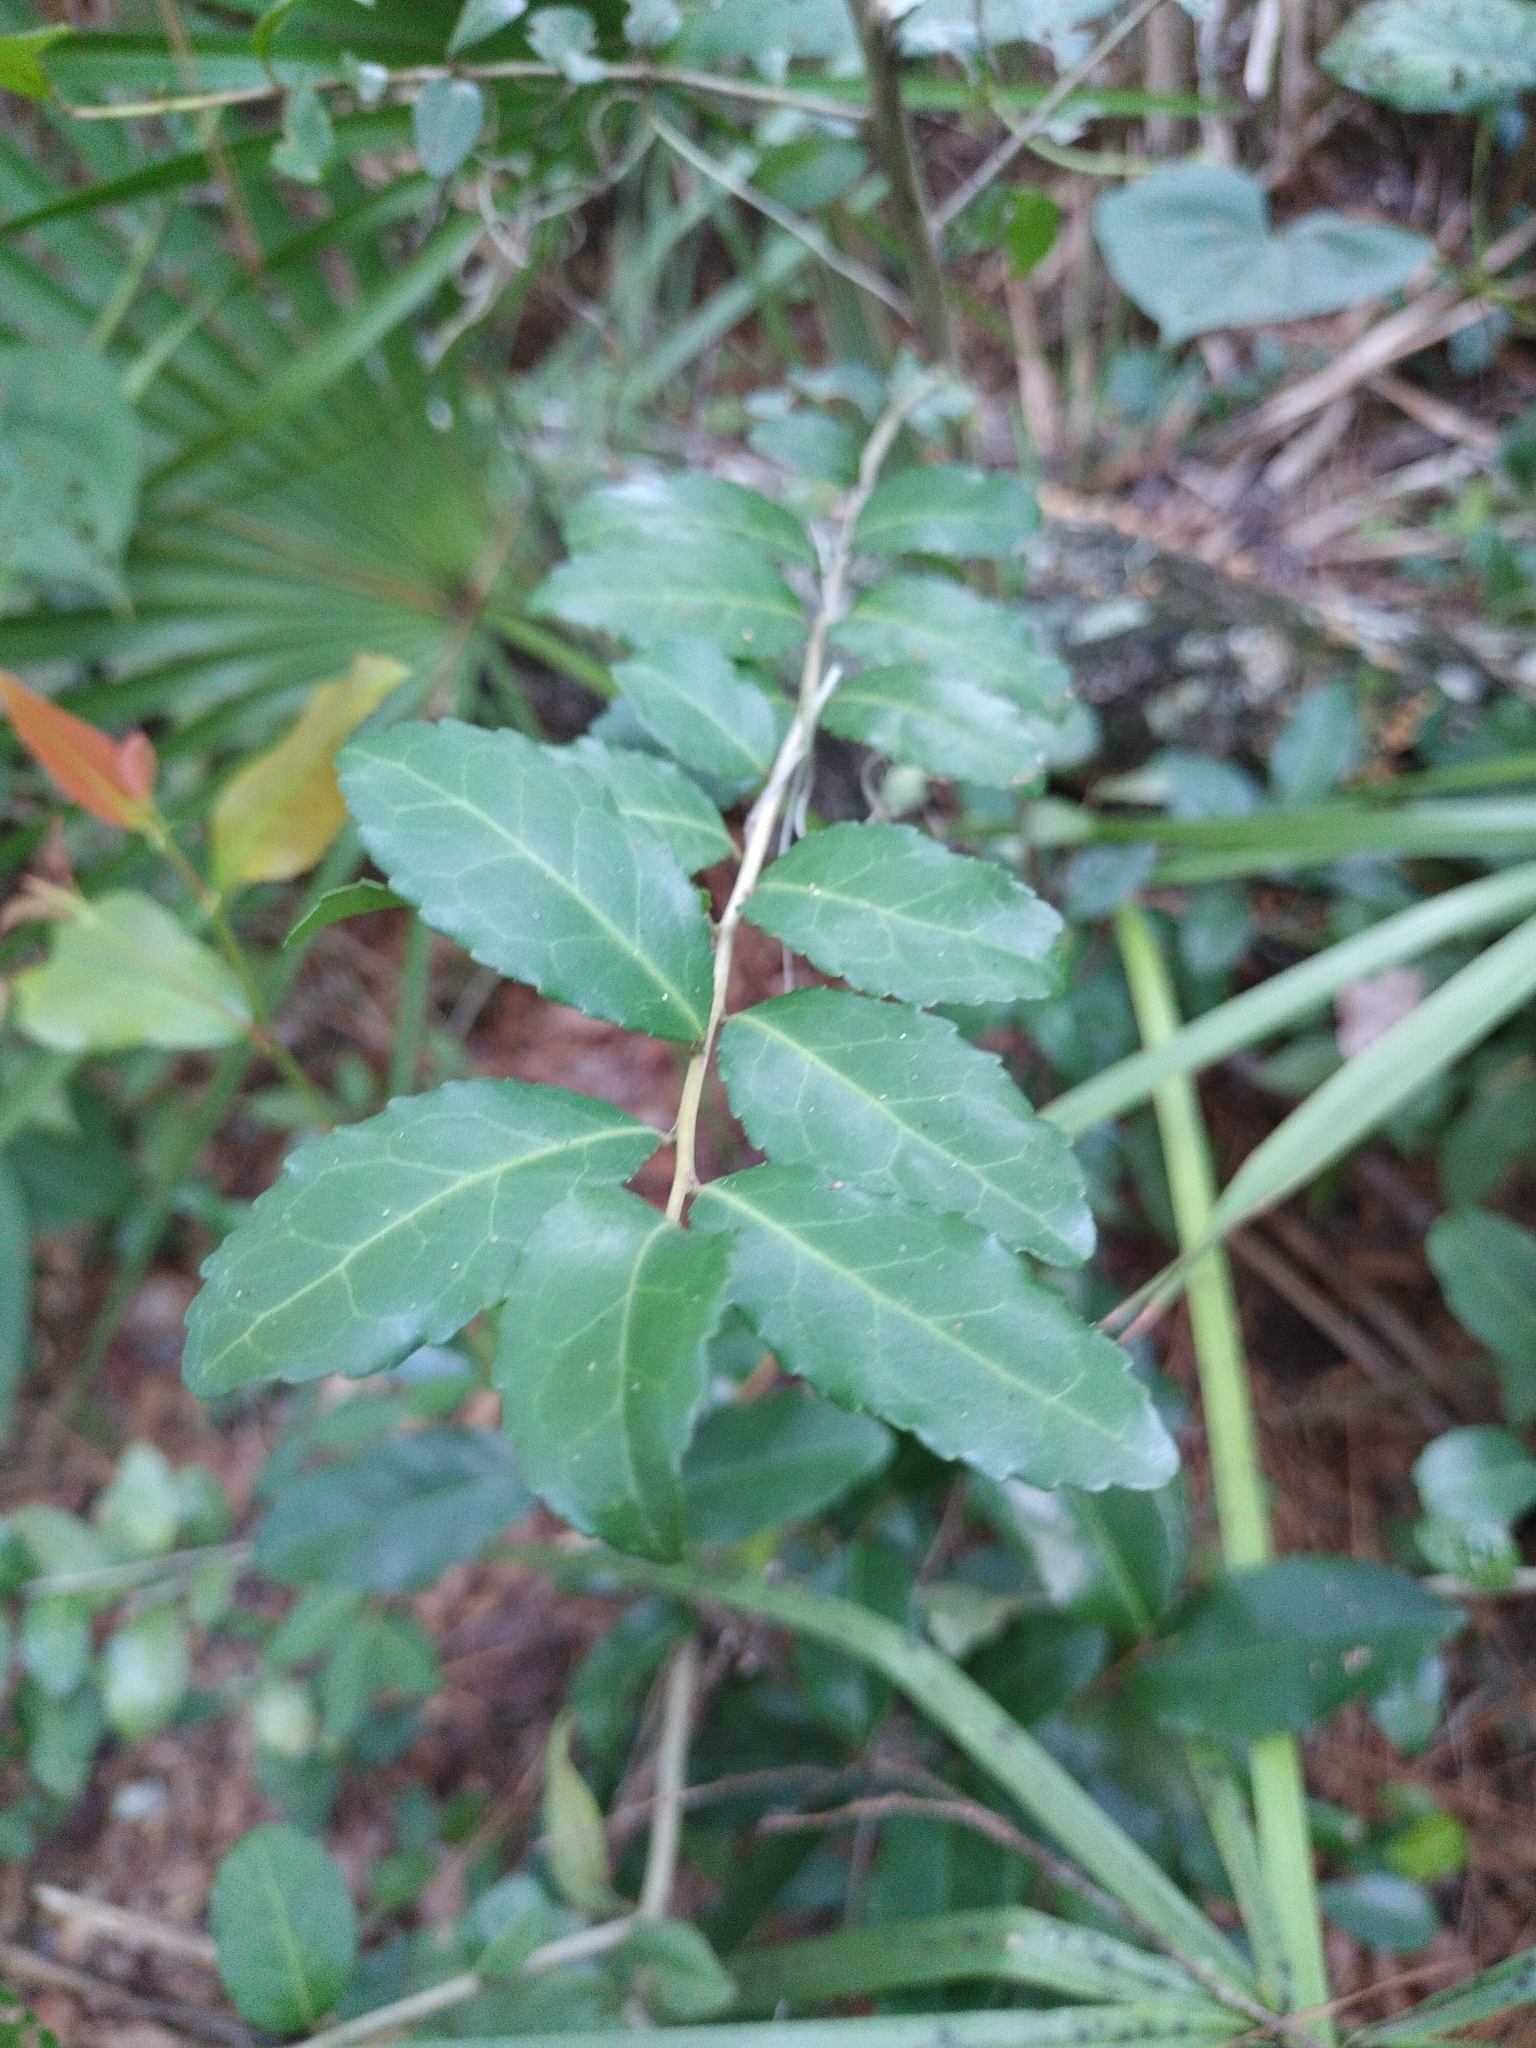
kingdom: Plantae
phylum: Tracheophyta
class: Magnoliopsida
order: Aquifoliales
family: Aquifoliaceae
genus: Ilex
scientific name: Ilex vomitoria
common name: Yaupon holly
